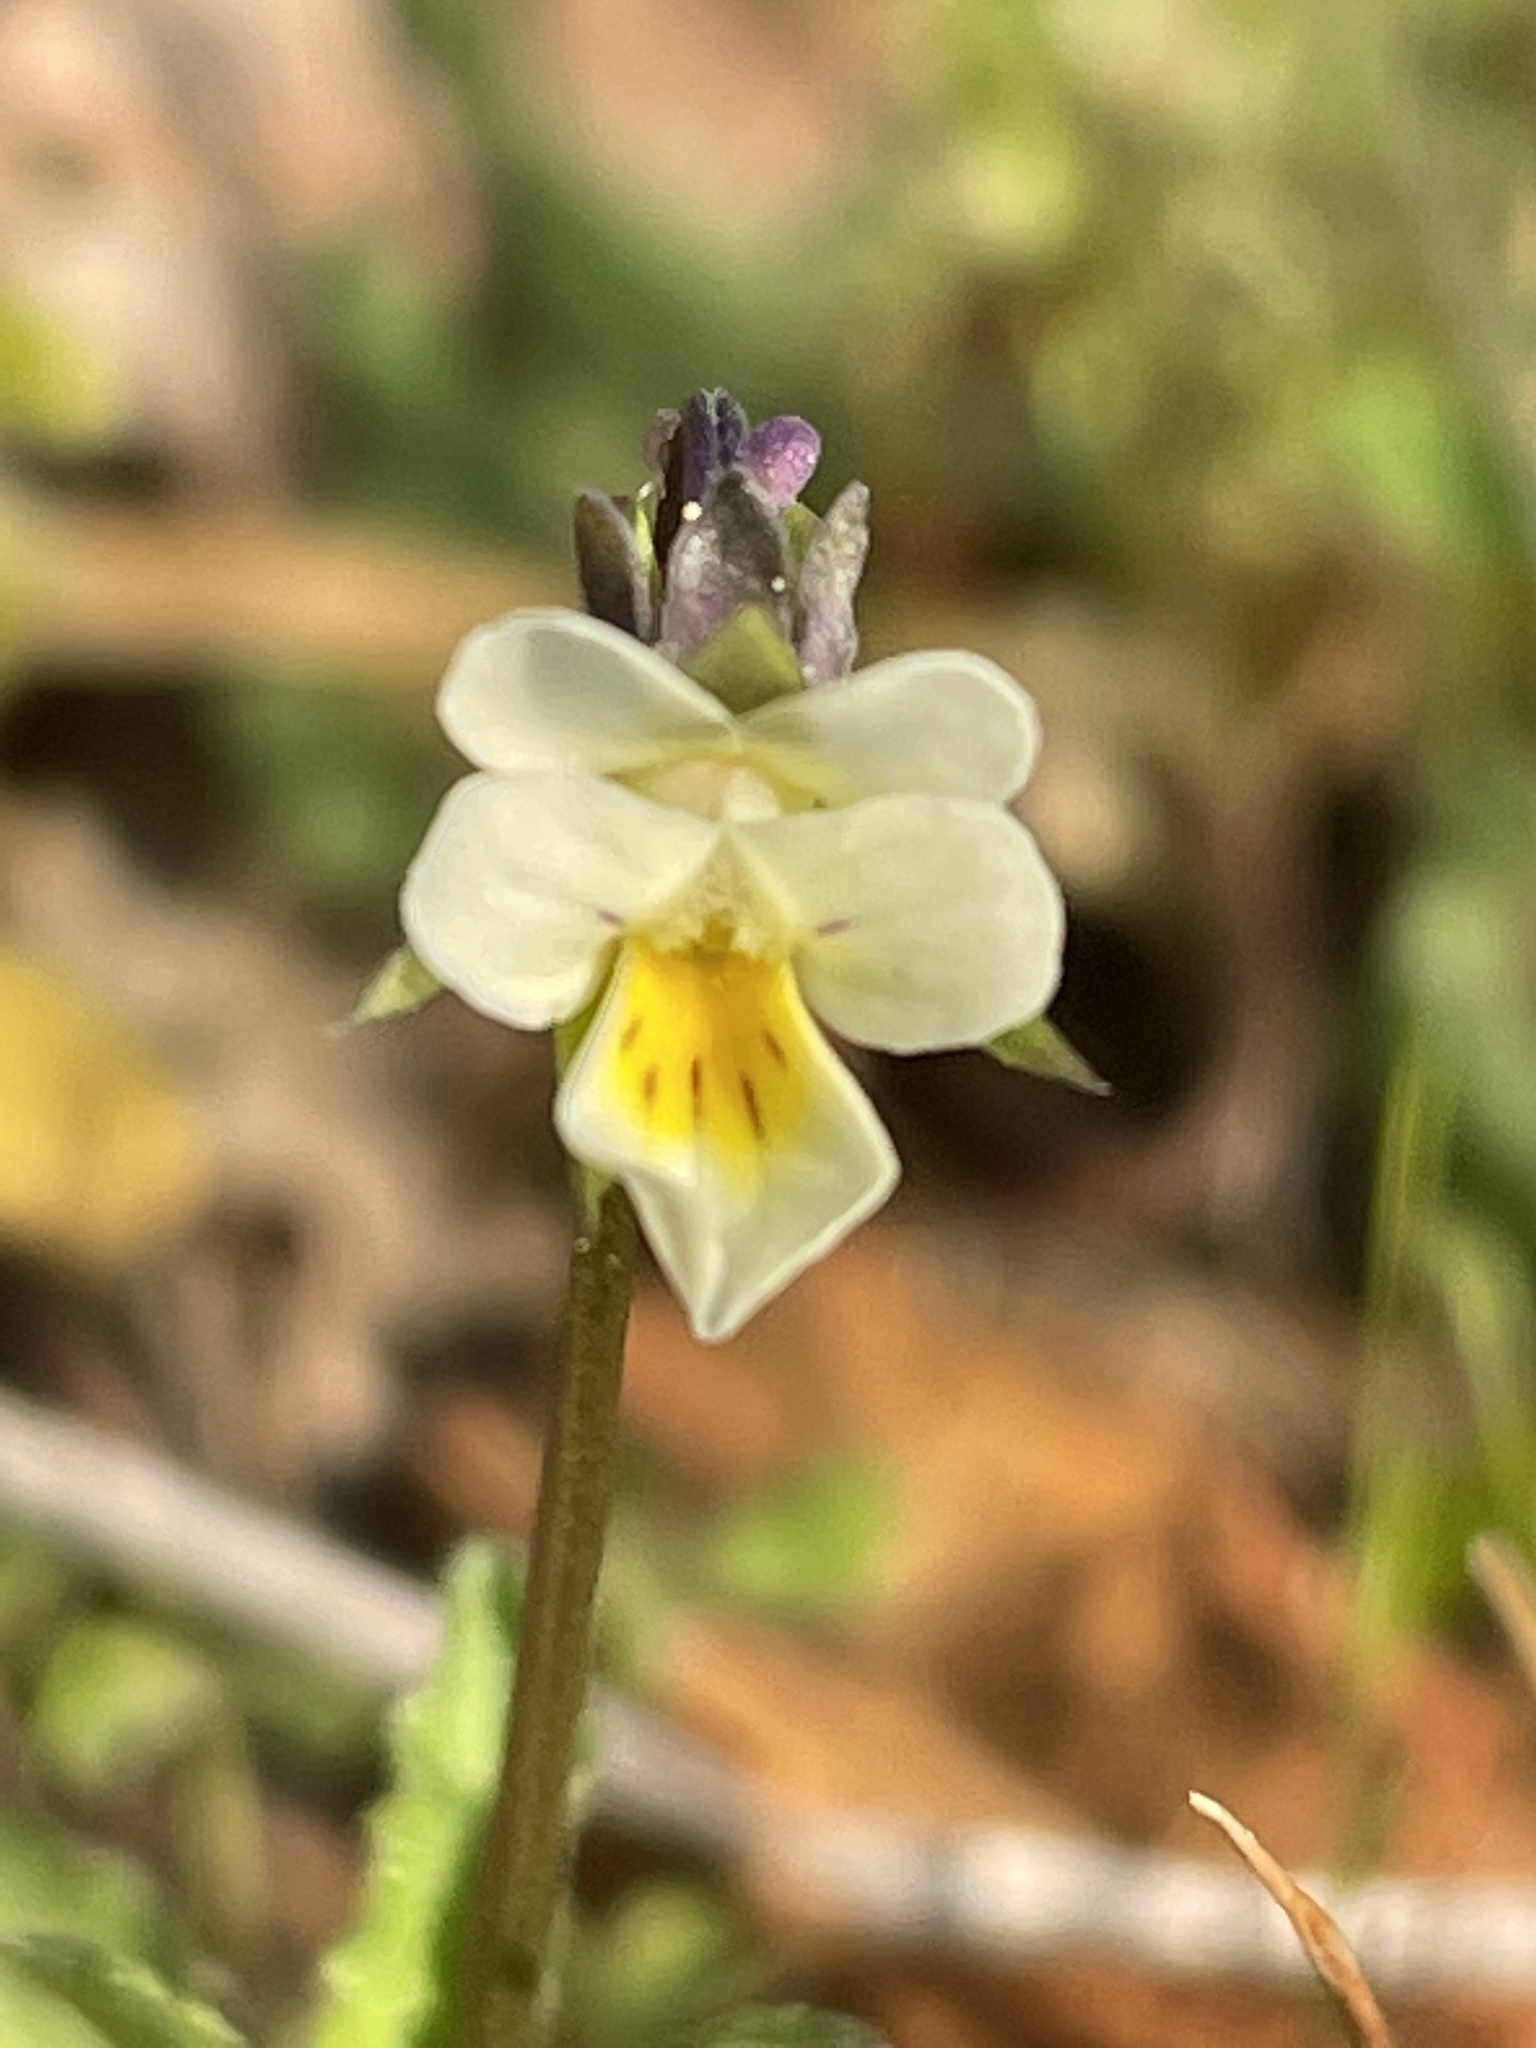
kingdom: Plantae
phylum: Tracheophyta
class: Magnoliopsida
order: Malpighiales
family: Violaceae
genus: Viola
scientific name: Viola arvensis
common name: Field pansy
